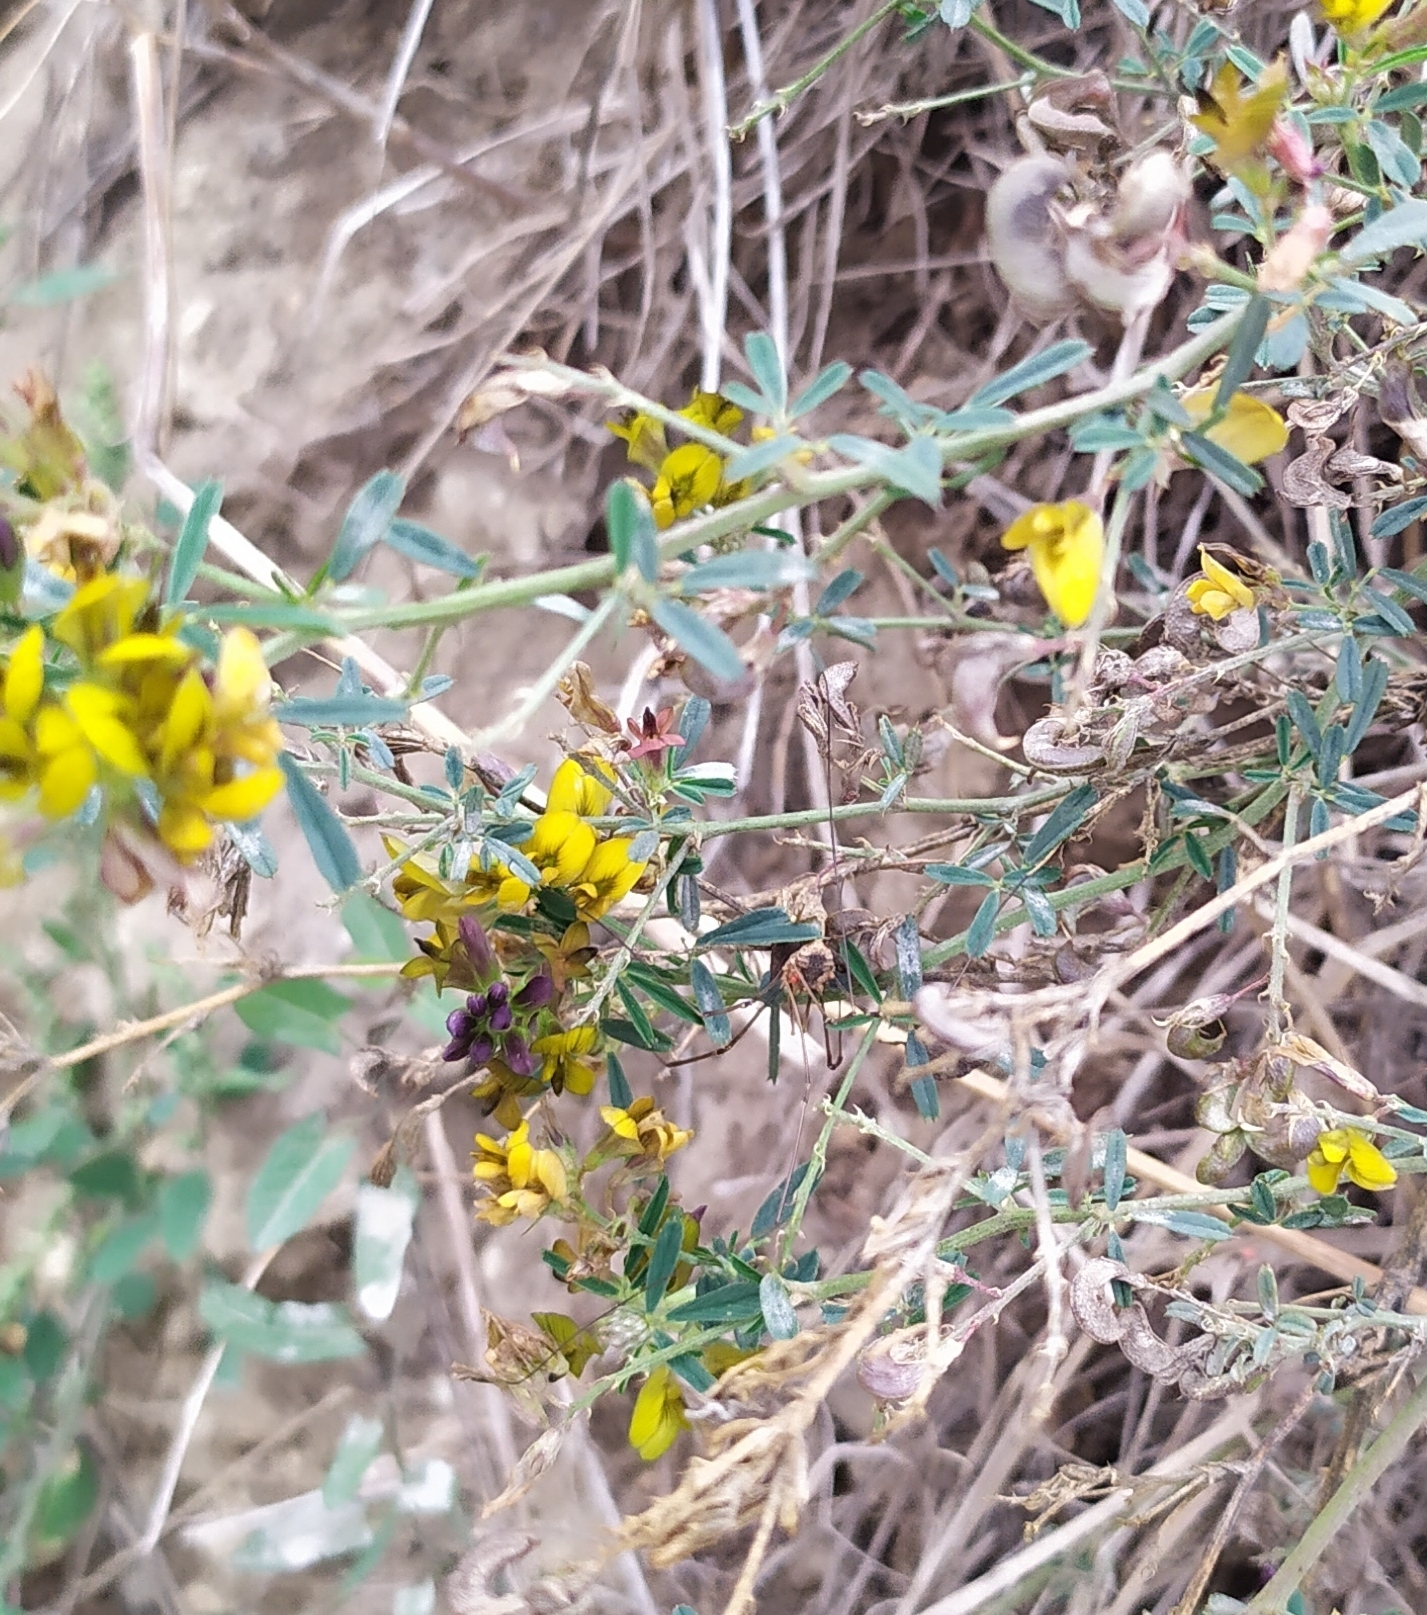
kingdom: Plantae
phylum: Tracheophyta
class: Magnoliopsida
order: Fabales
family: Fabaceae
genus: Medicago
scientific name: Medicago varia
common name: Sand lucerne
